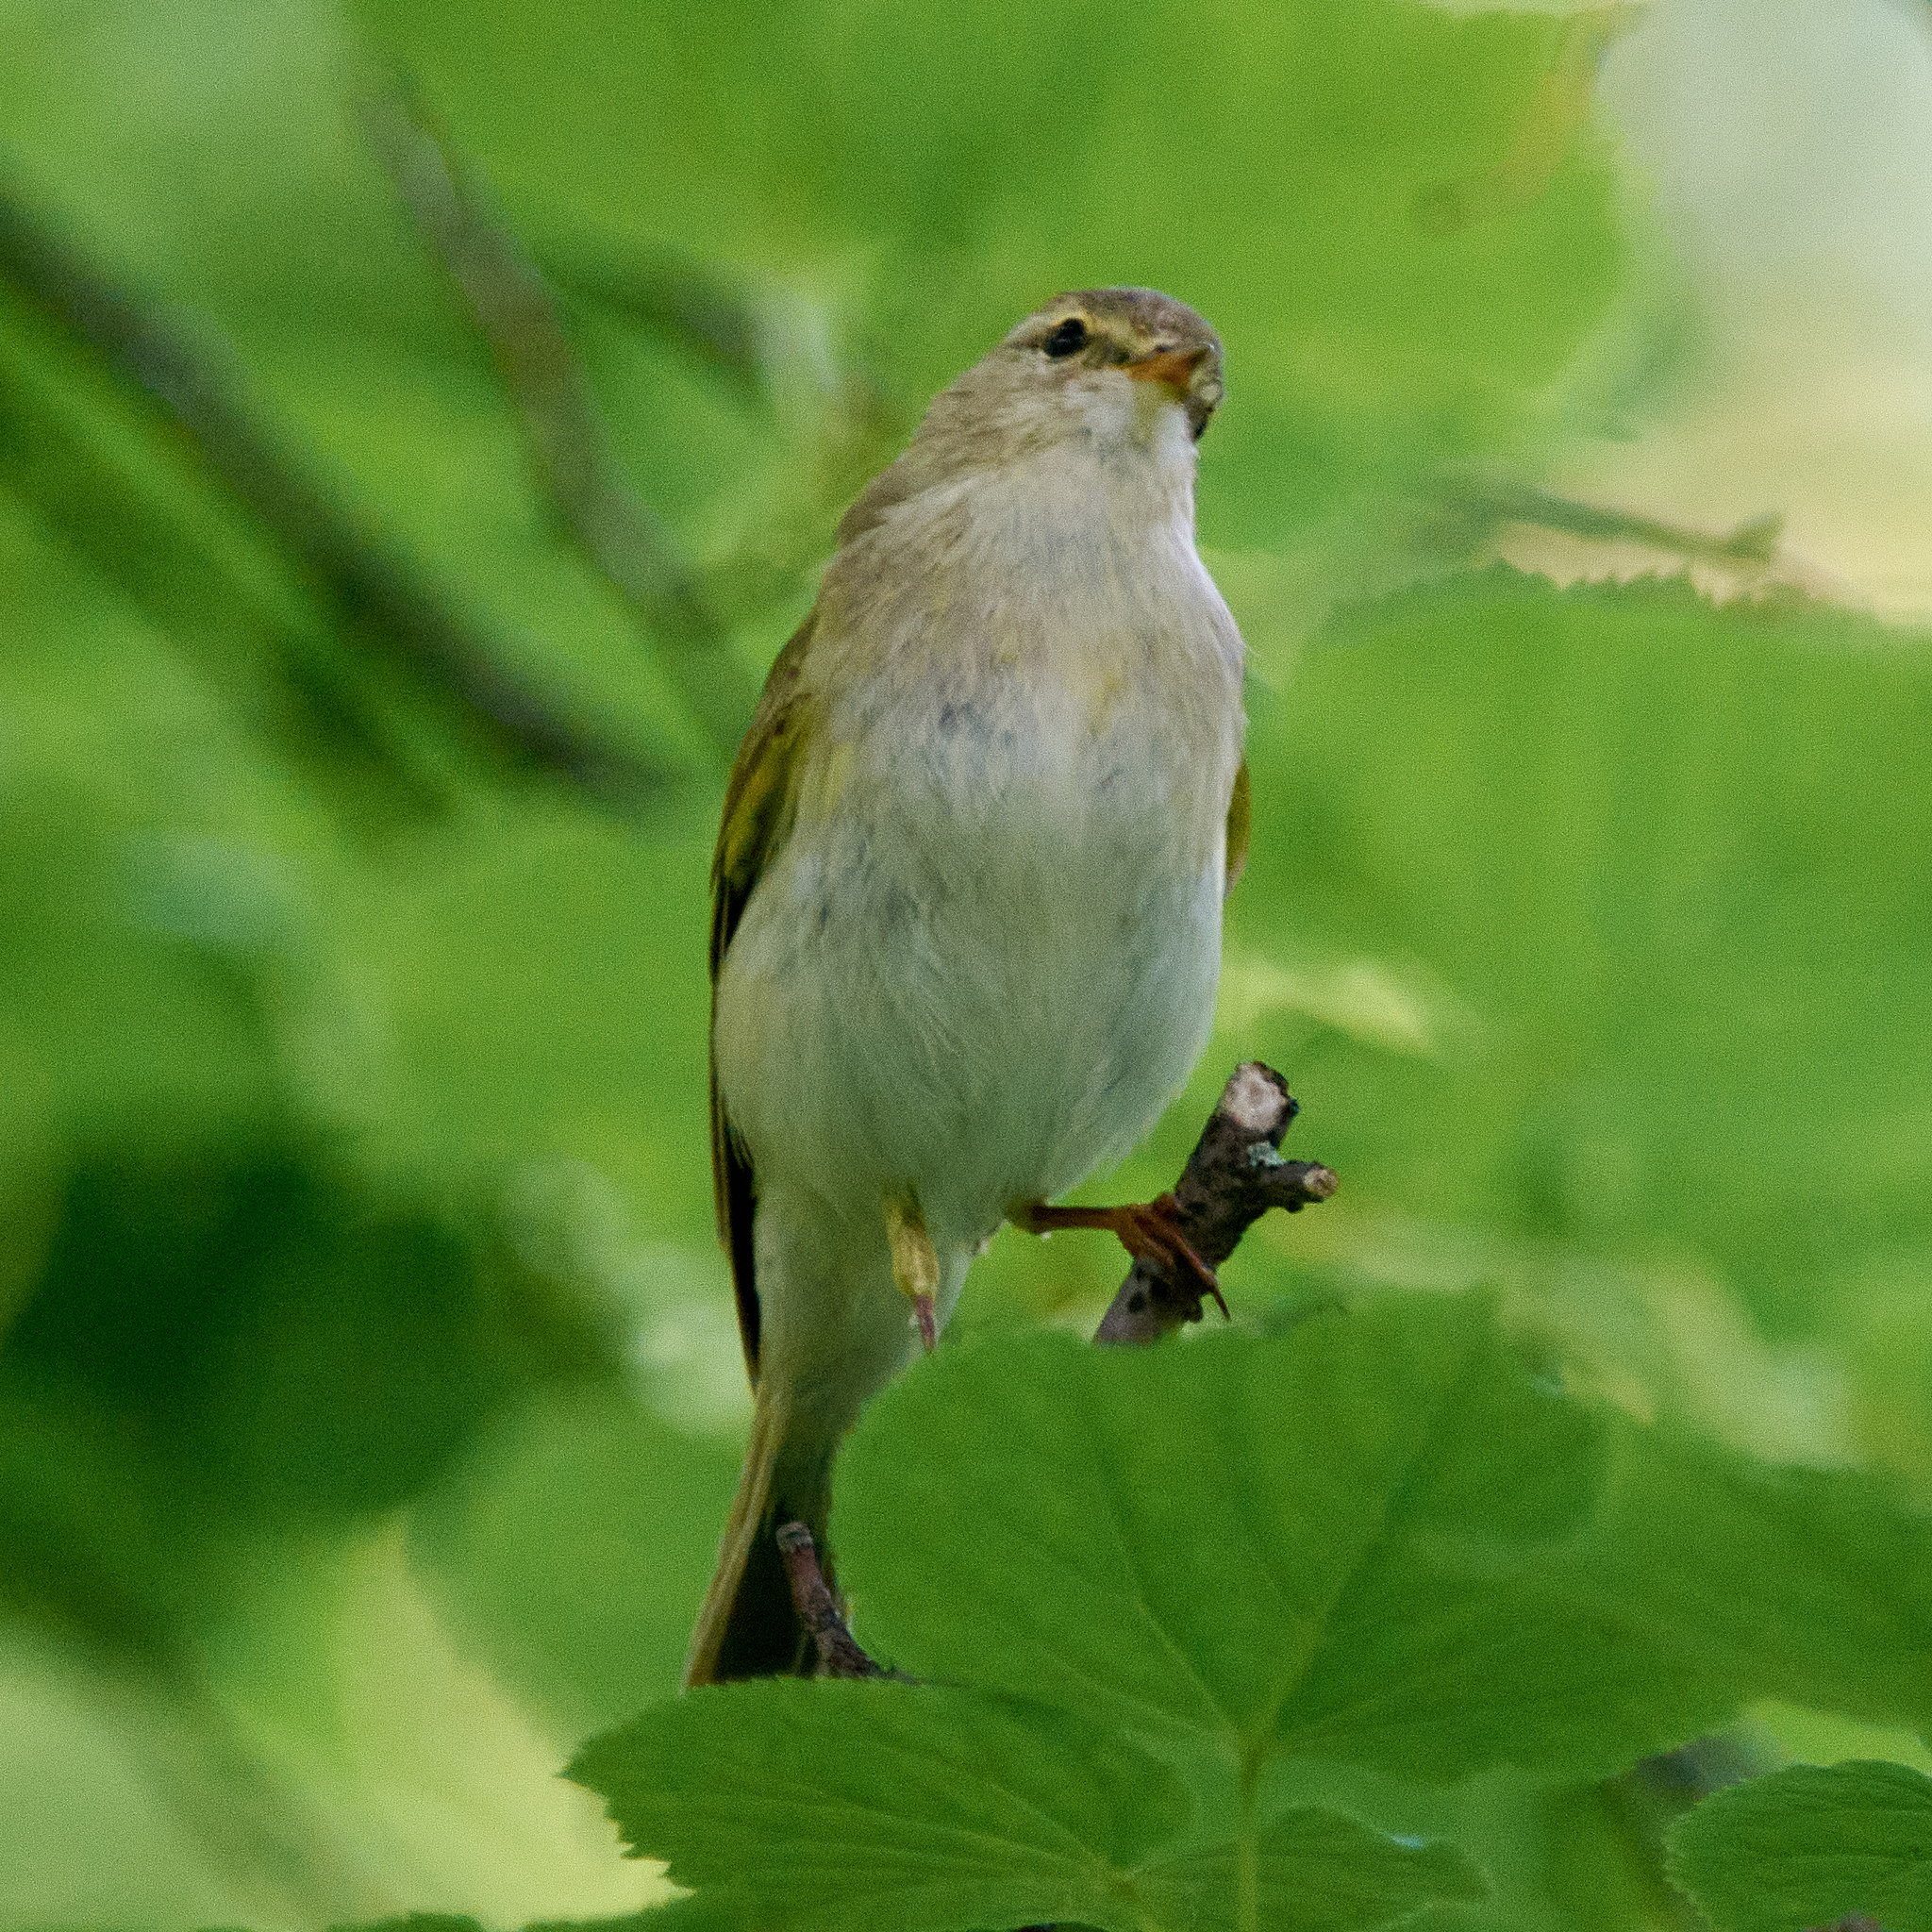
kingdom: Animalia
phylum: Chordata
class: Aves
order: Passeriformes
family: Phylloscopidae
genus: Phylloscopus
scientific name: Phylloscopus trochilus
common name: Willow warbler
